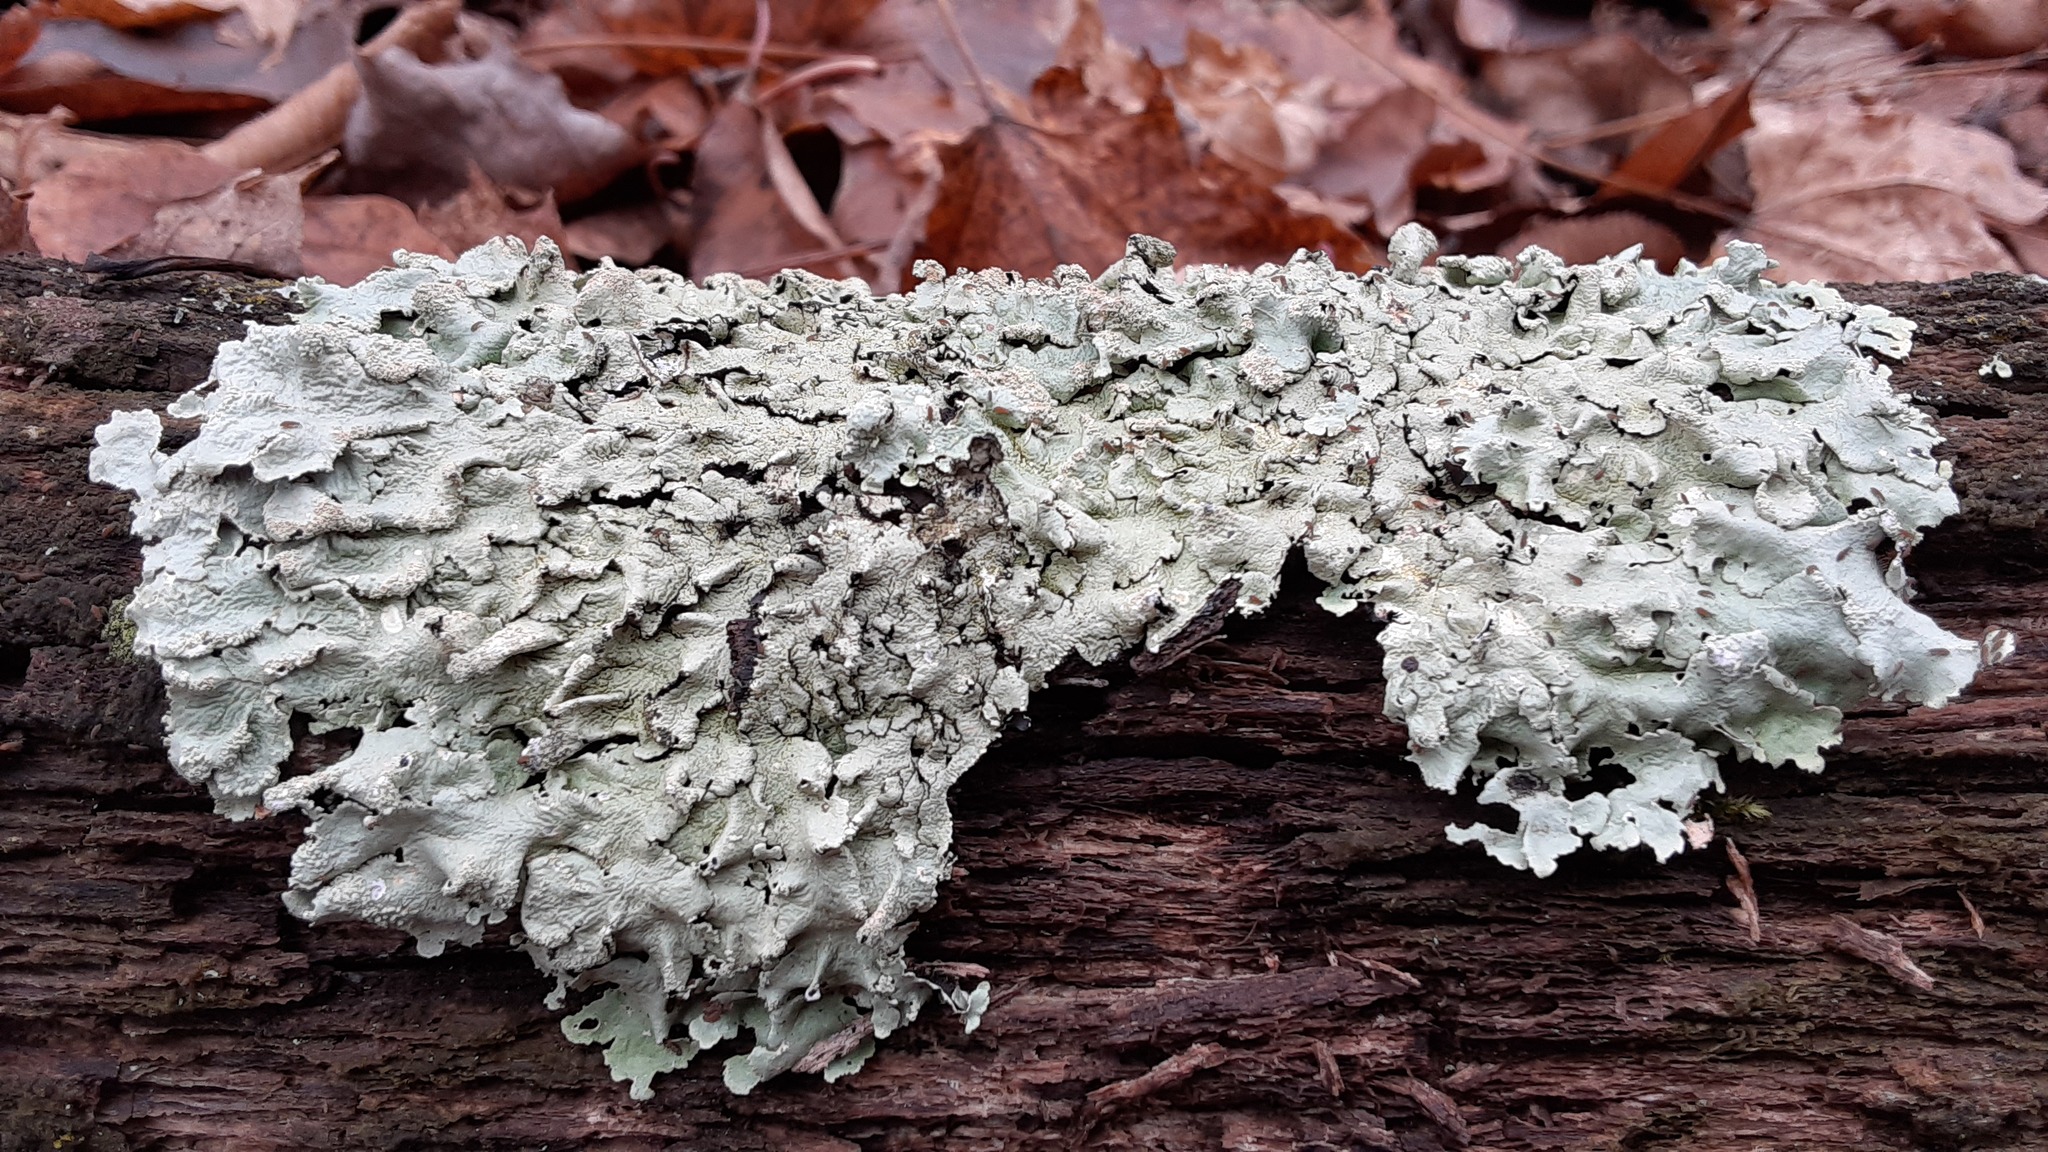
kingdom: Fungi
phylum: Ascomycota
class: Lecanoromycetes
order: Lecanorales
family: Parmeliaceae
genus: Flavoparmelia
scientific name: Flavoparmelia caperata
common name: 40-mile per hour lichen
